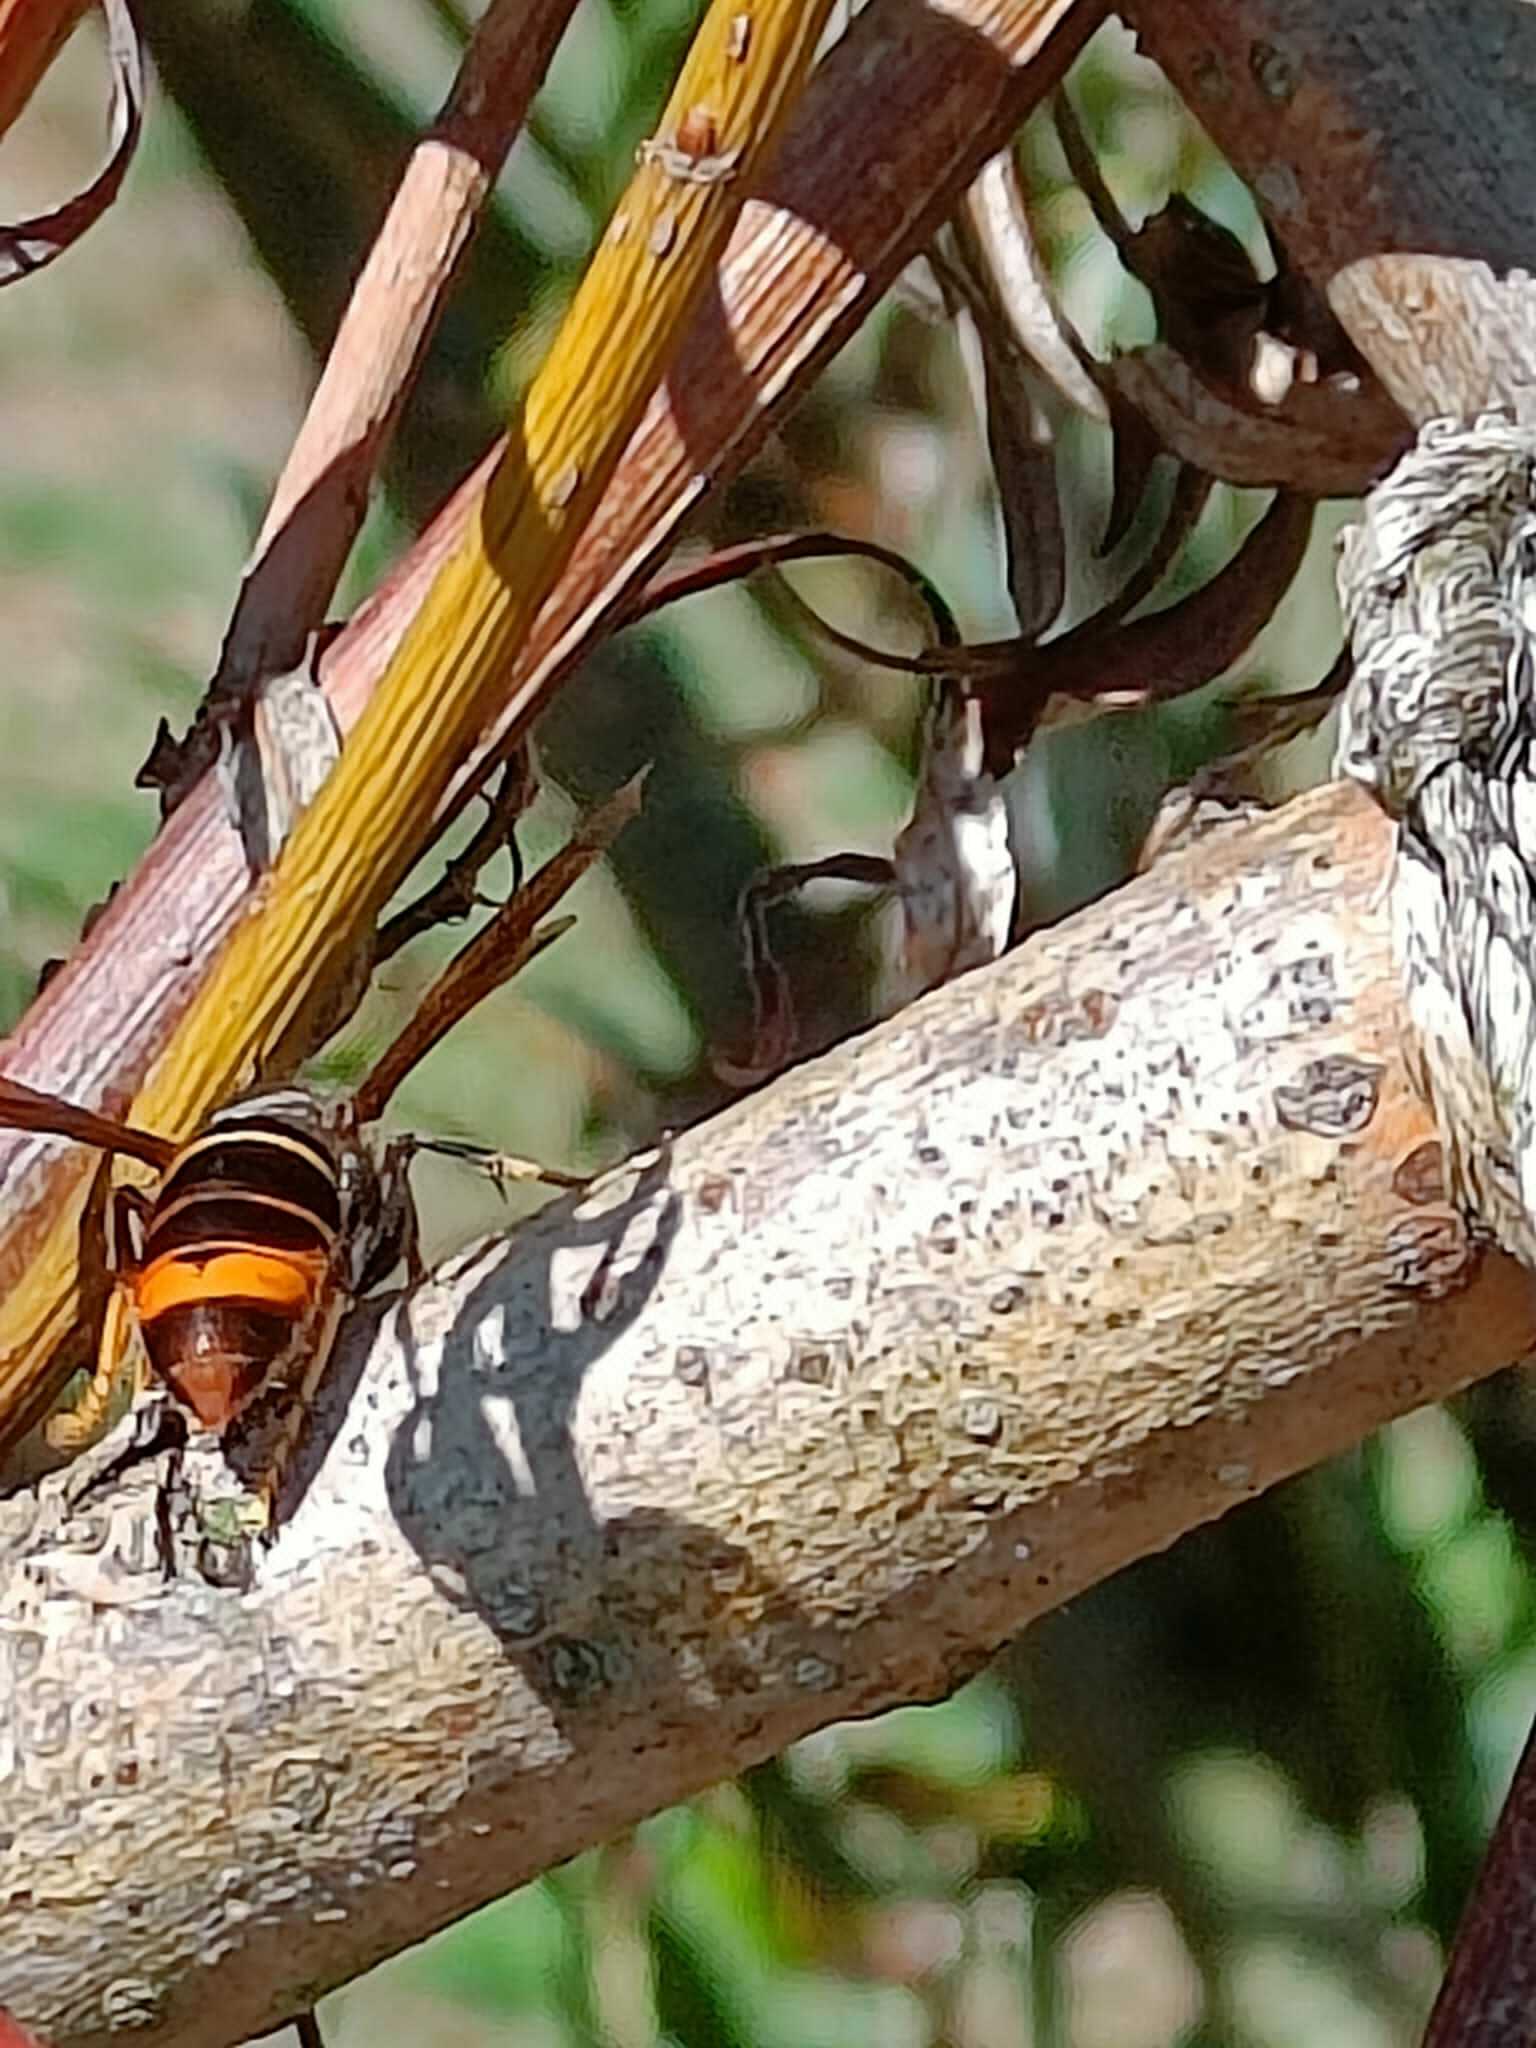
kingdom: Animalia
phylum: Arthropoda
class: Insecta
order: Hymenoptera
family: Vespidae
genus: Vespa
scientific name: Vespa velutina
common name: Asian hornet
